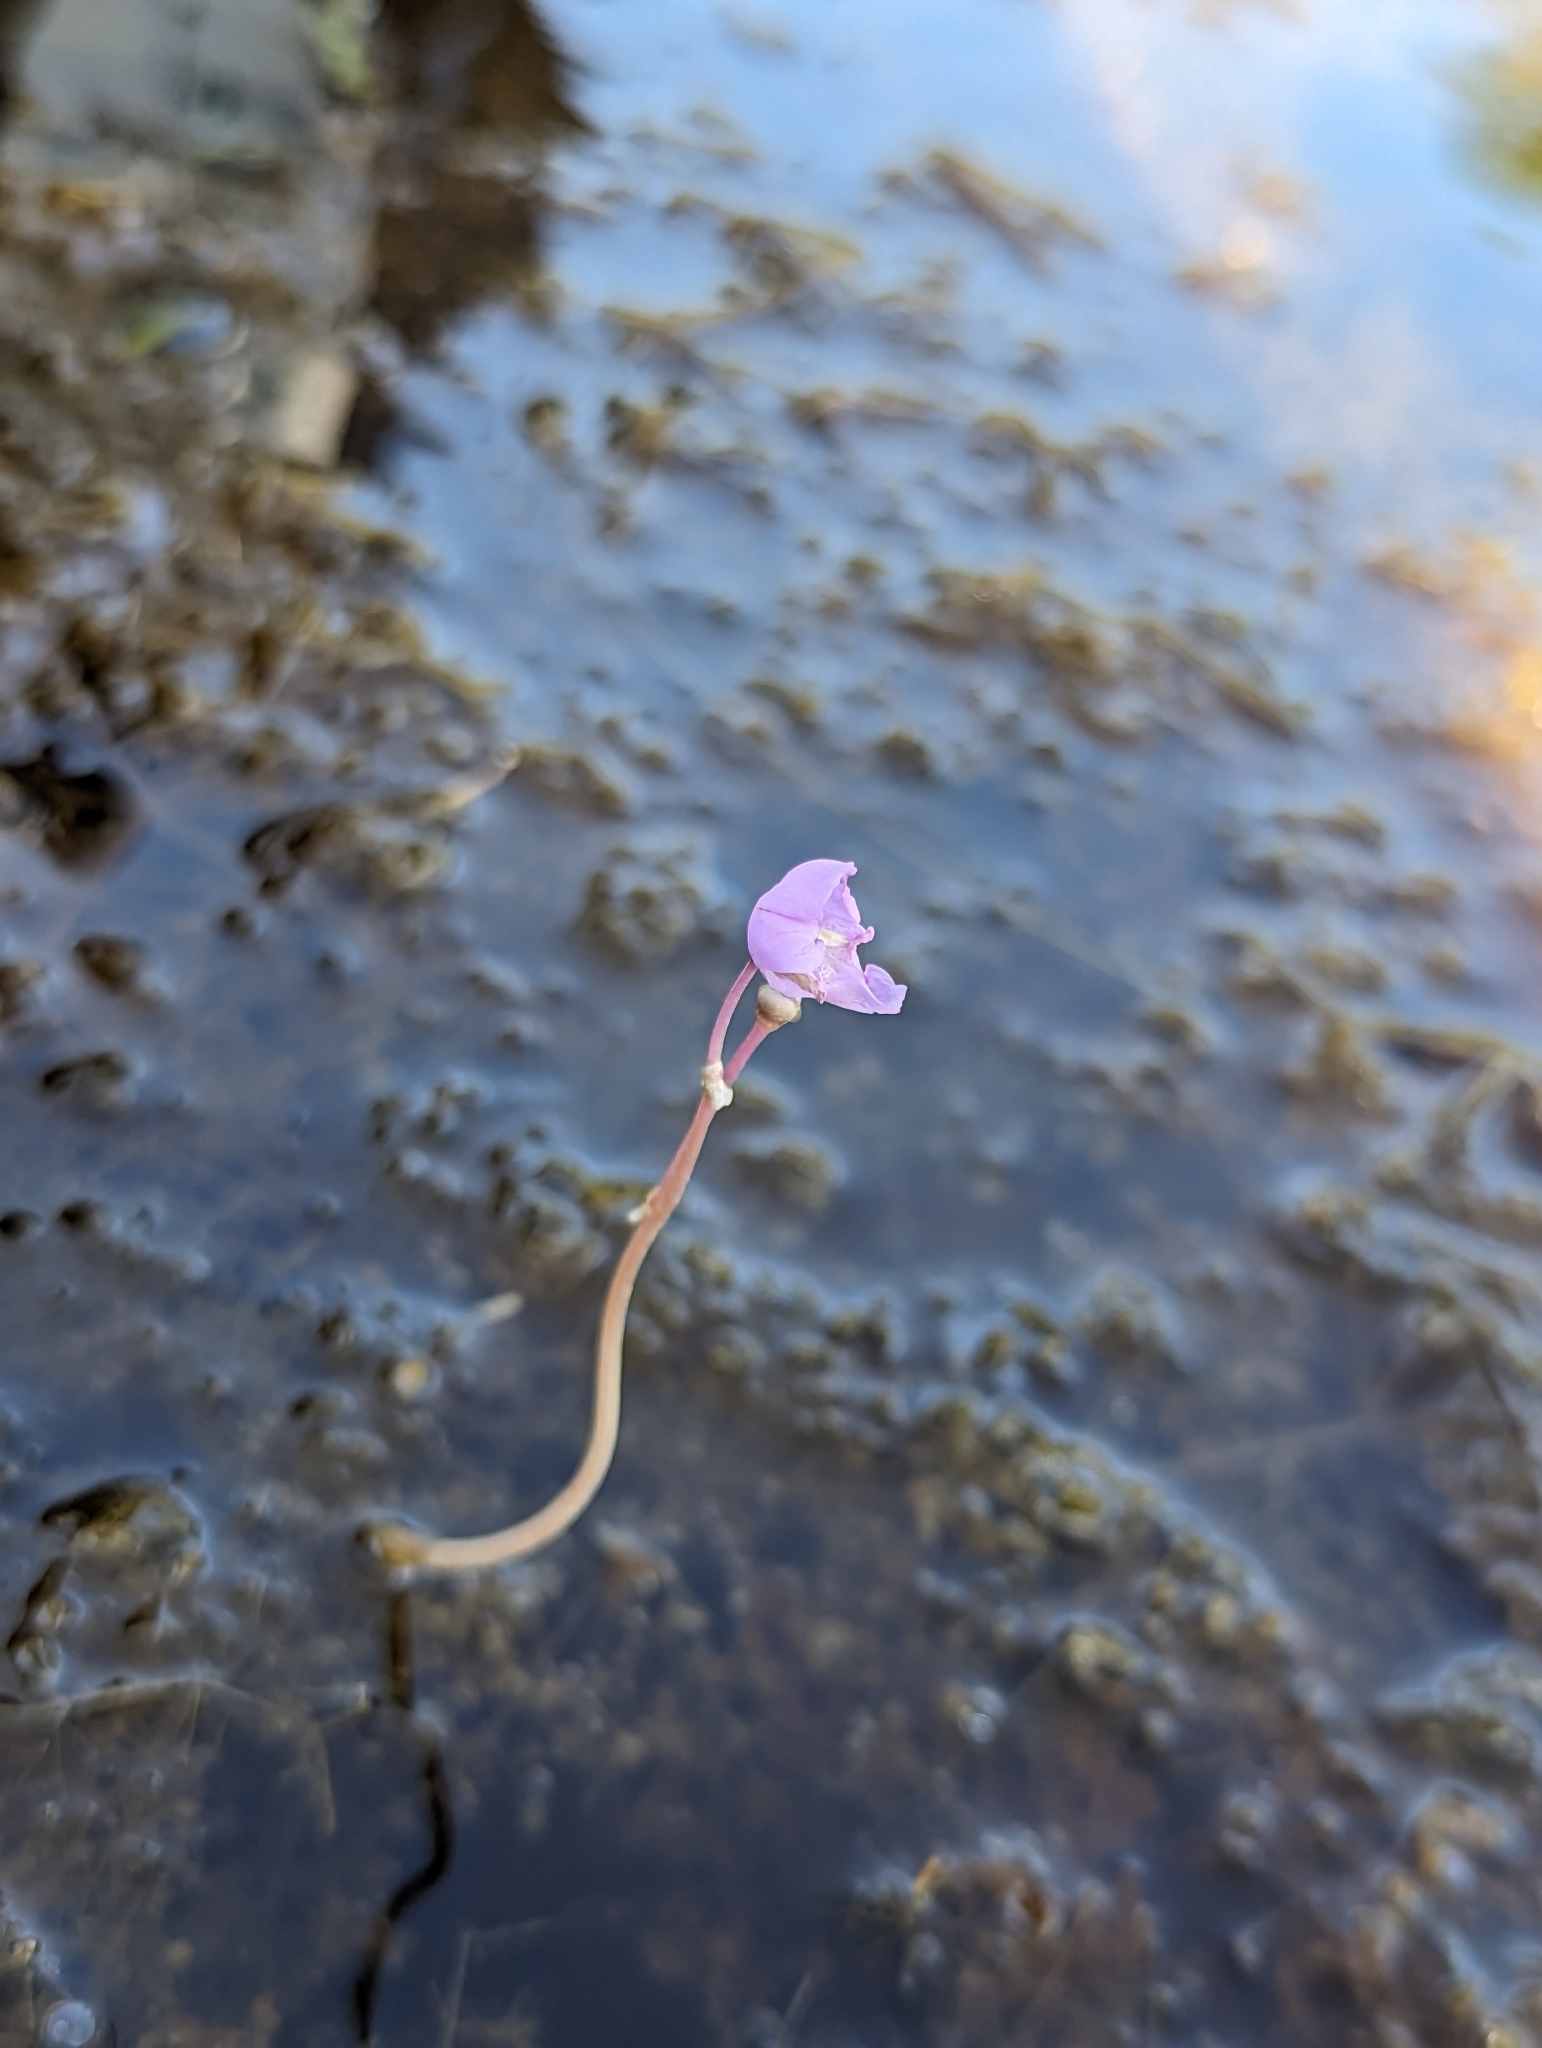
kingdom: Plantae
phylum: Tracheophyta
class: Magnoliopsida
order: Lamiales
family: Lentibulariaceae
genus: Utricularia
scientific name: Utricularia purpurea
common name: Eastern purple bladderwort
